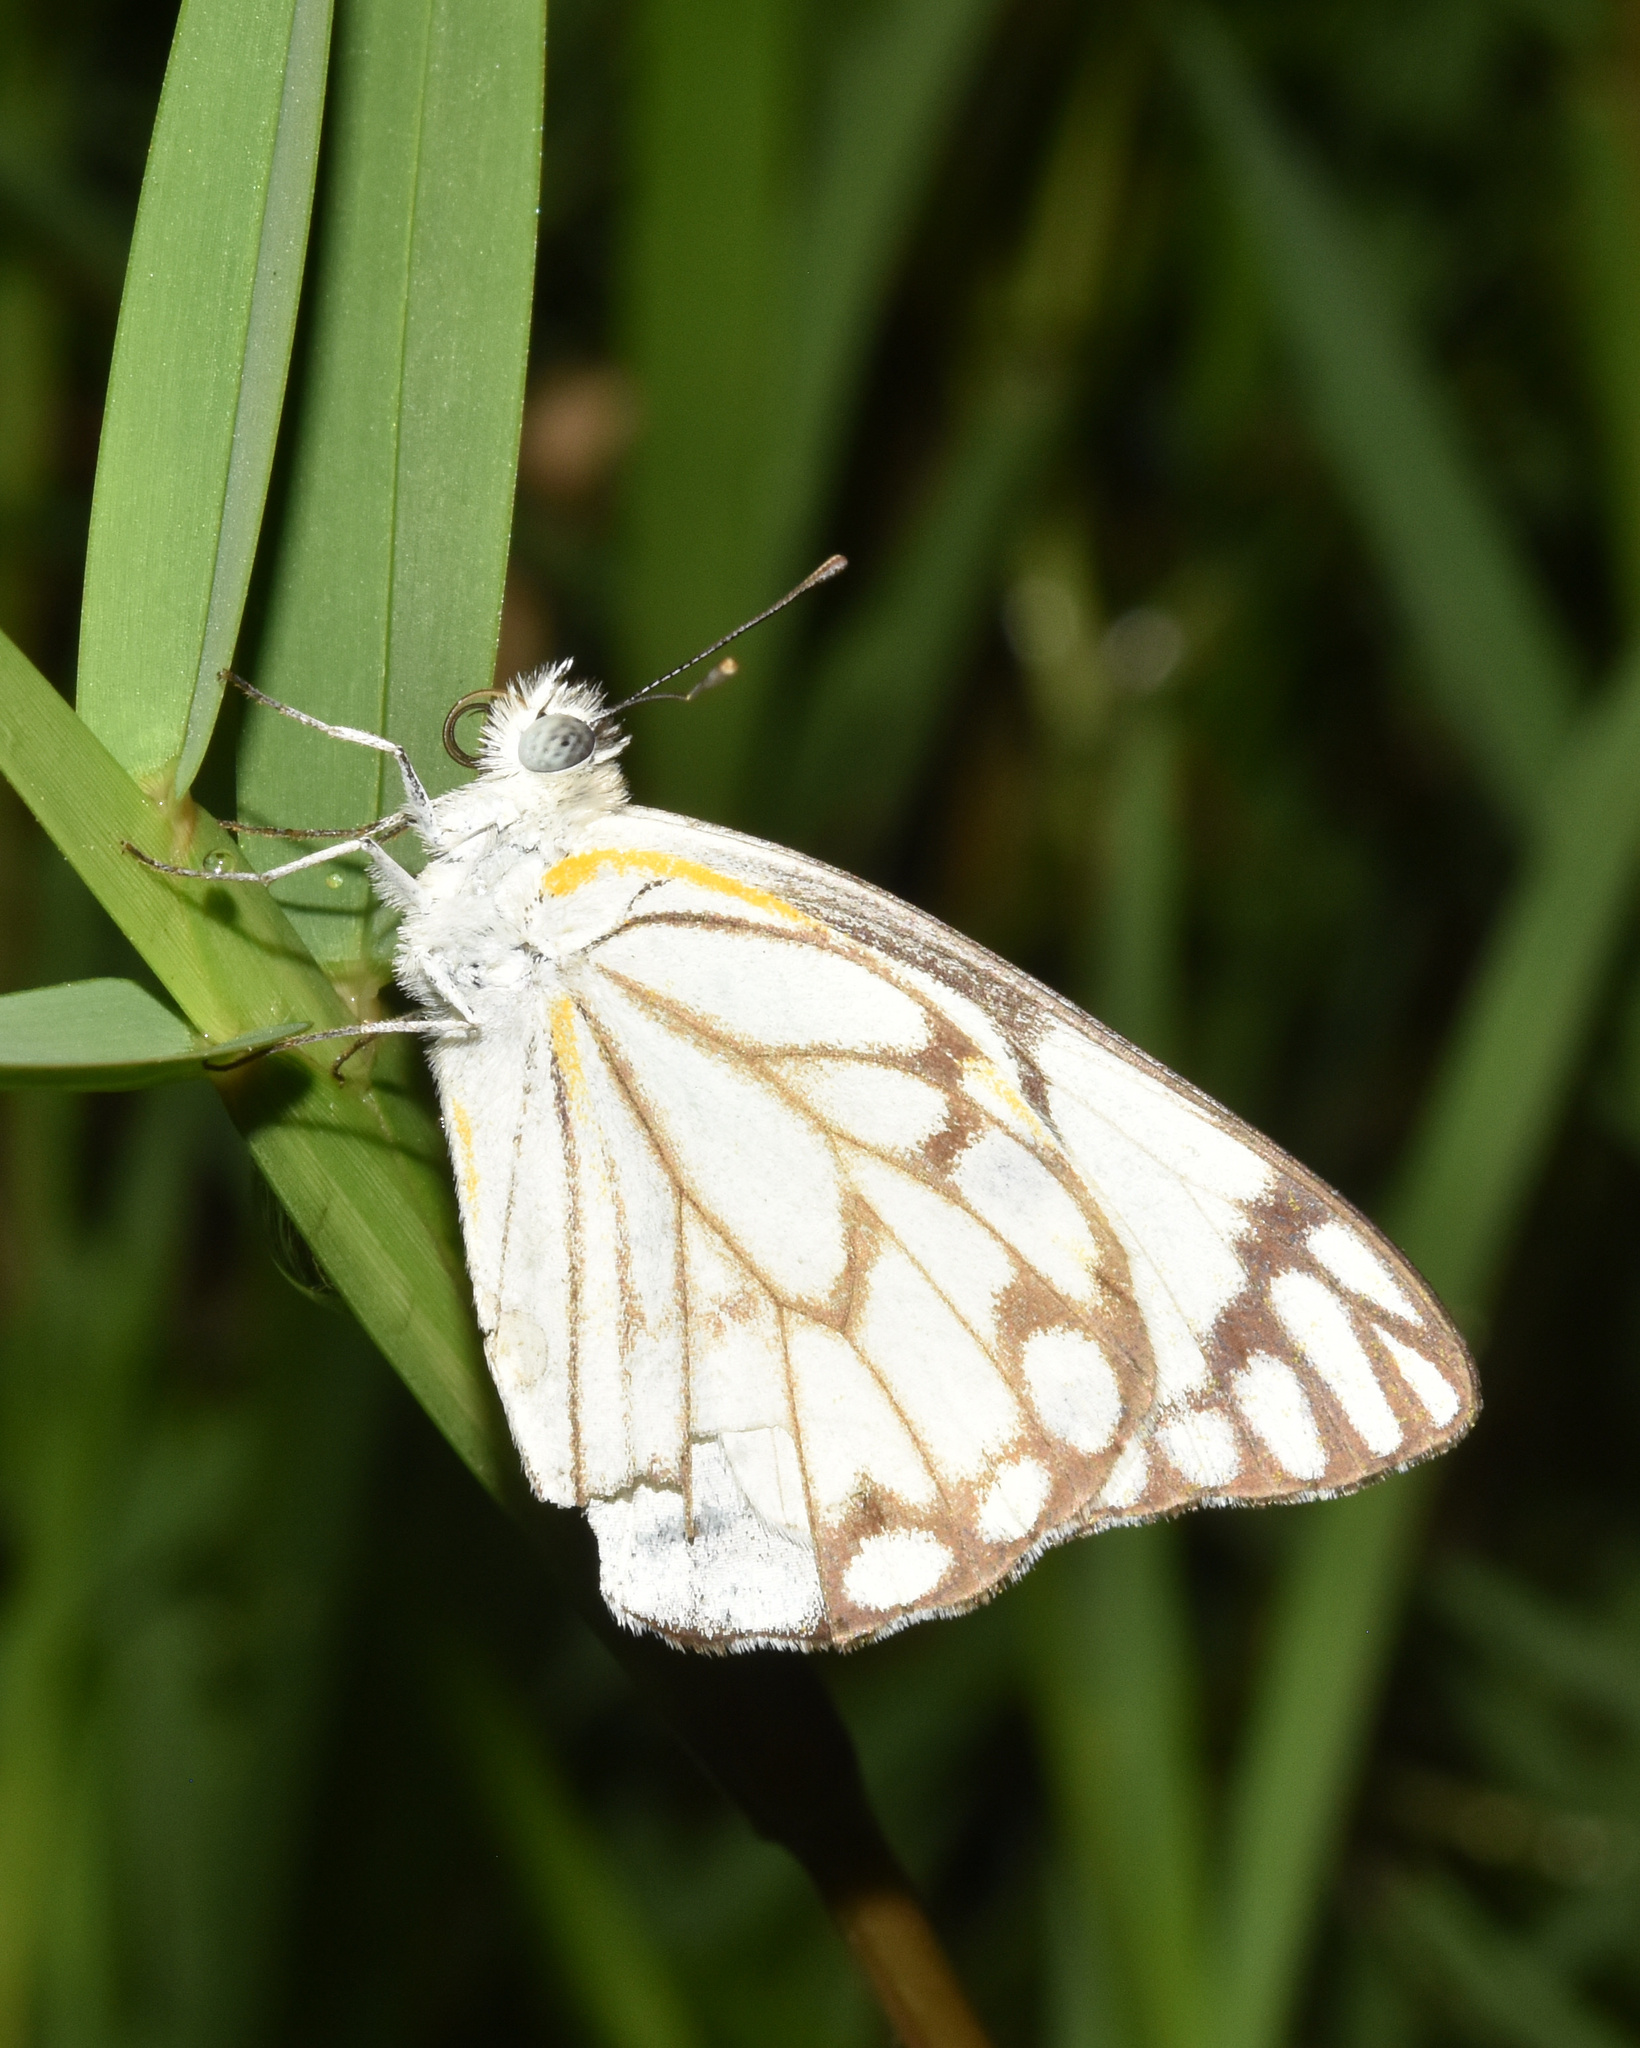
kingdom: Animalia
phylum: Arthropoda
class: Insecta
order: Lepidoptera
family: Pieridae
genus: Belenois
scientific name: Belenois aurota
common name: Brown-veined white
